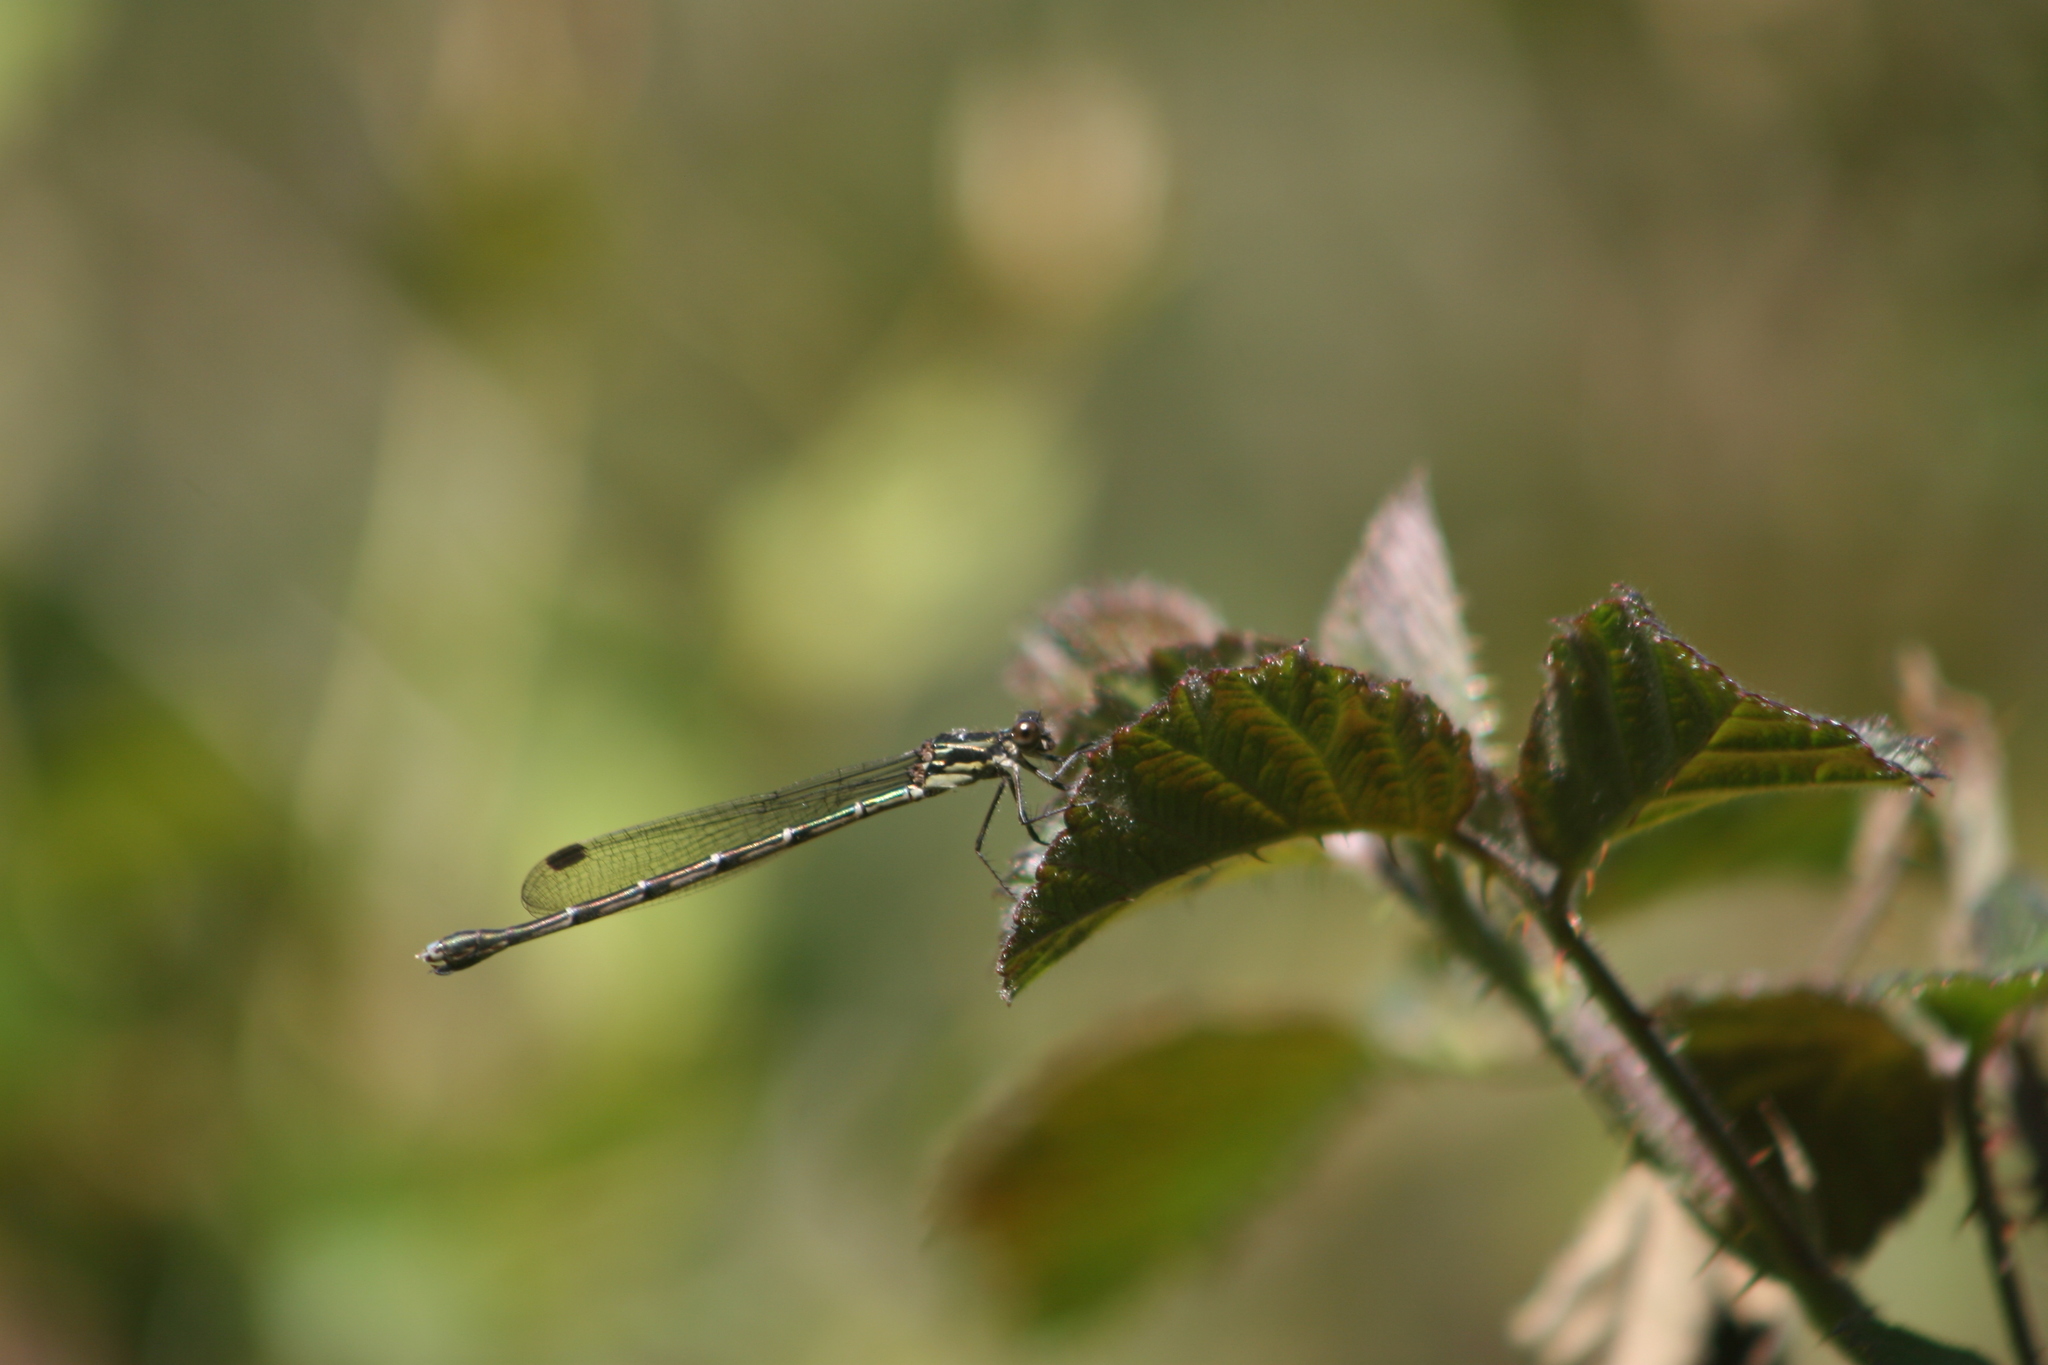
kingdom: Animalia
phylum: Arthropoda
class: Insecta
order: Odonata
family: Lestidae
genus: Austrolestes
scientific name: Austrolestes colensonis
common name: Blue damselfly
